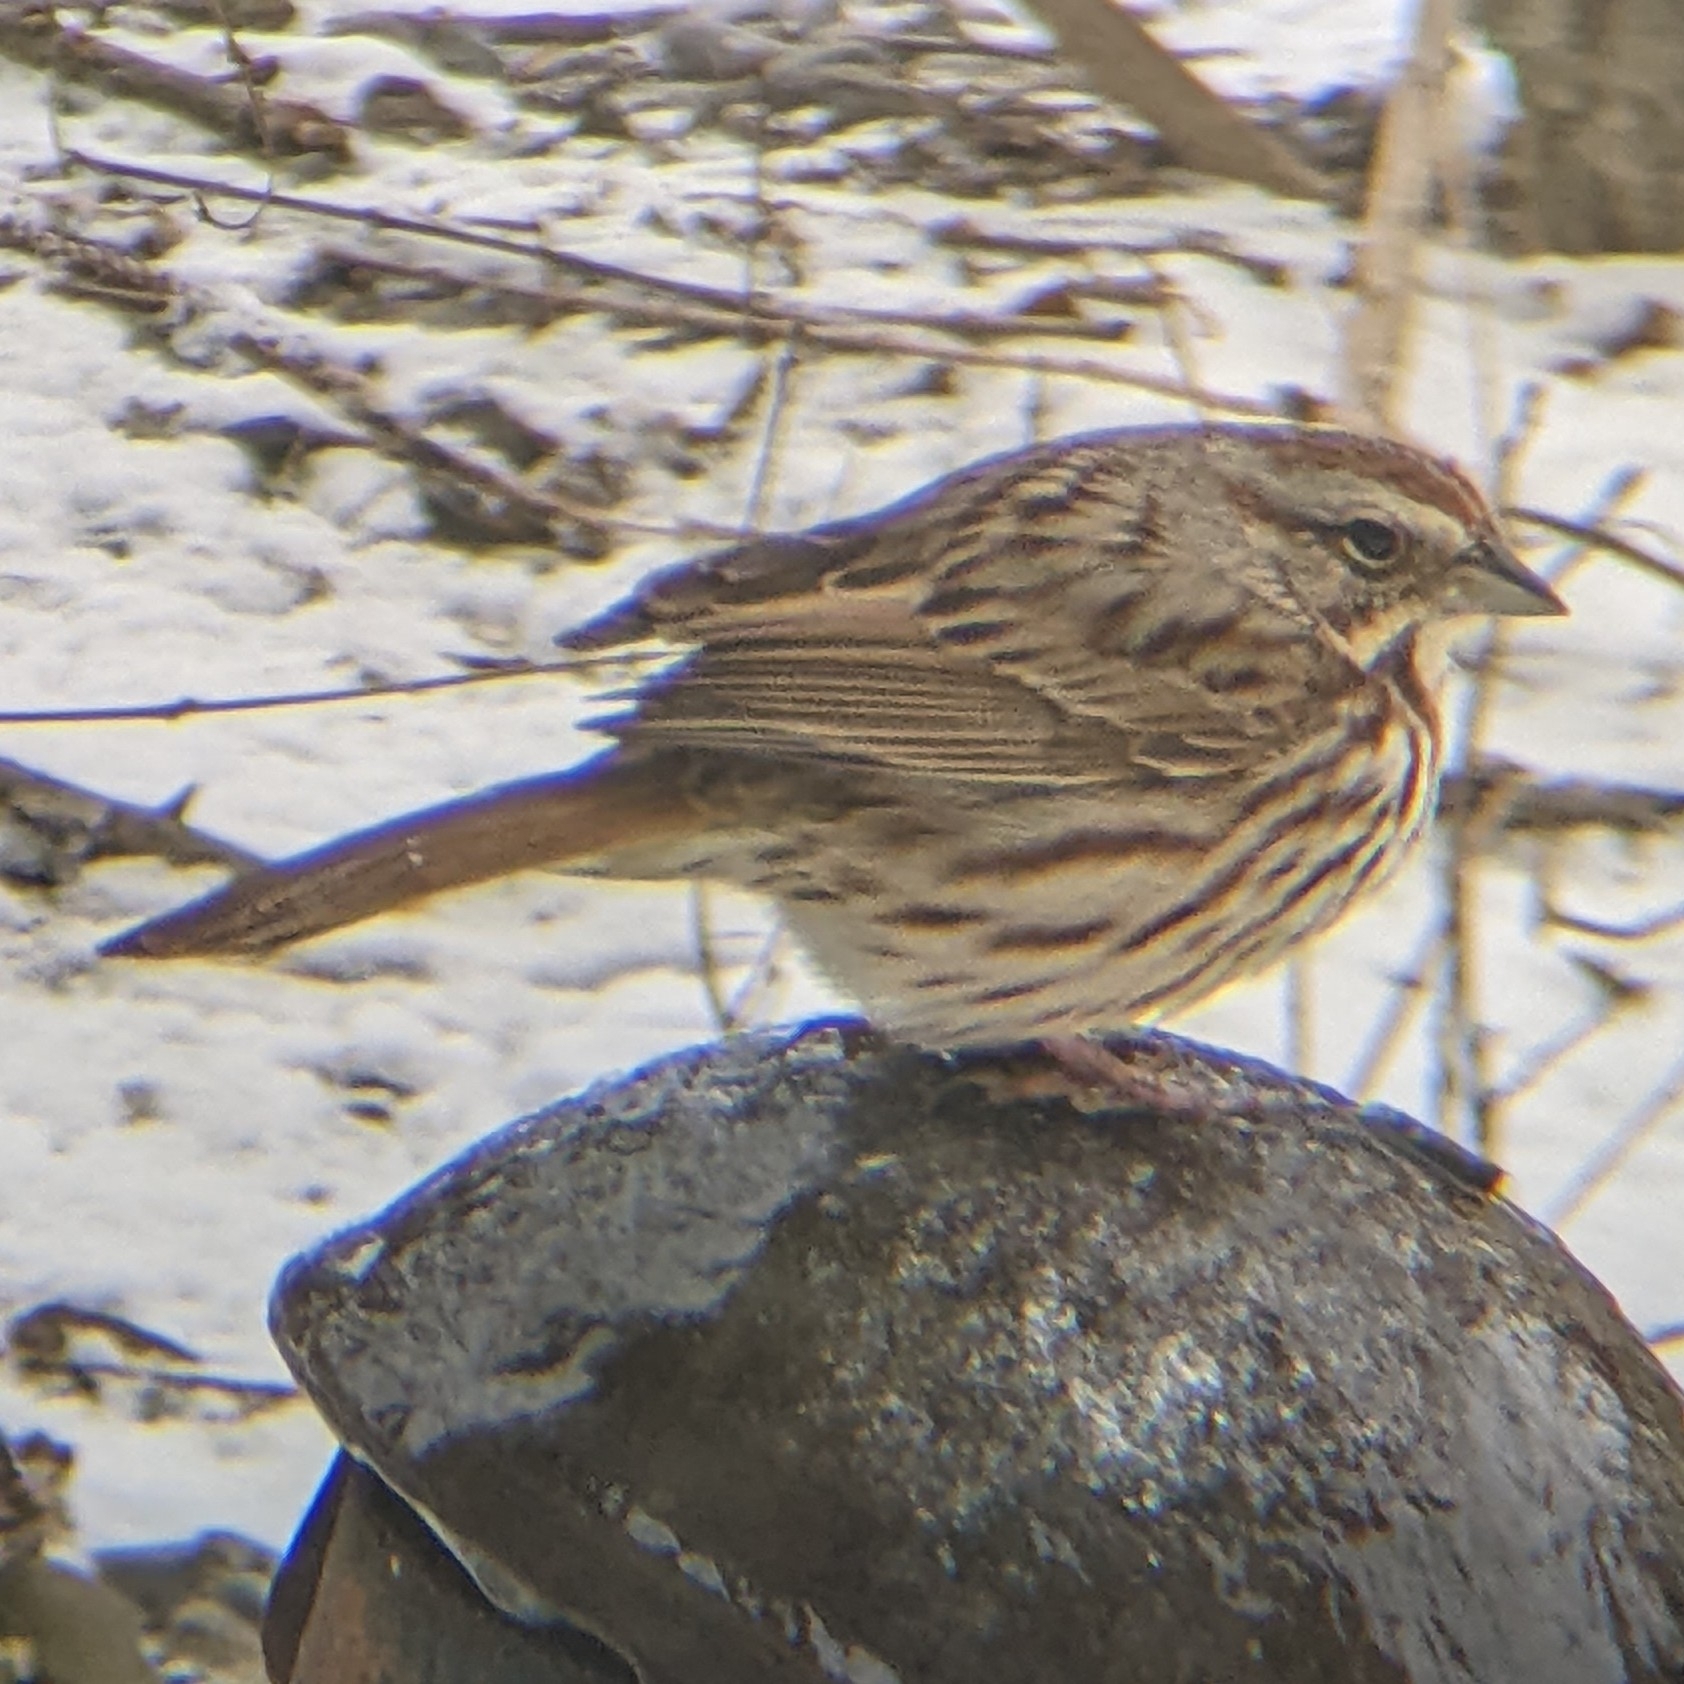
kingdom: Animalia
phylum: Chordata
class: Aves
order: Passeriformes
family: Passerellidae
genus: Melospiza
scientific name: Melospiza melodia
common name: Song sparrow
